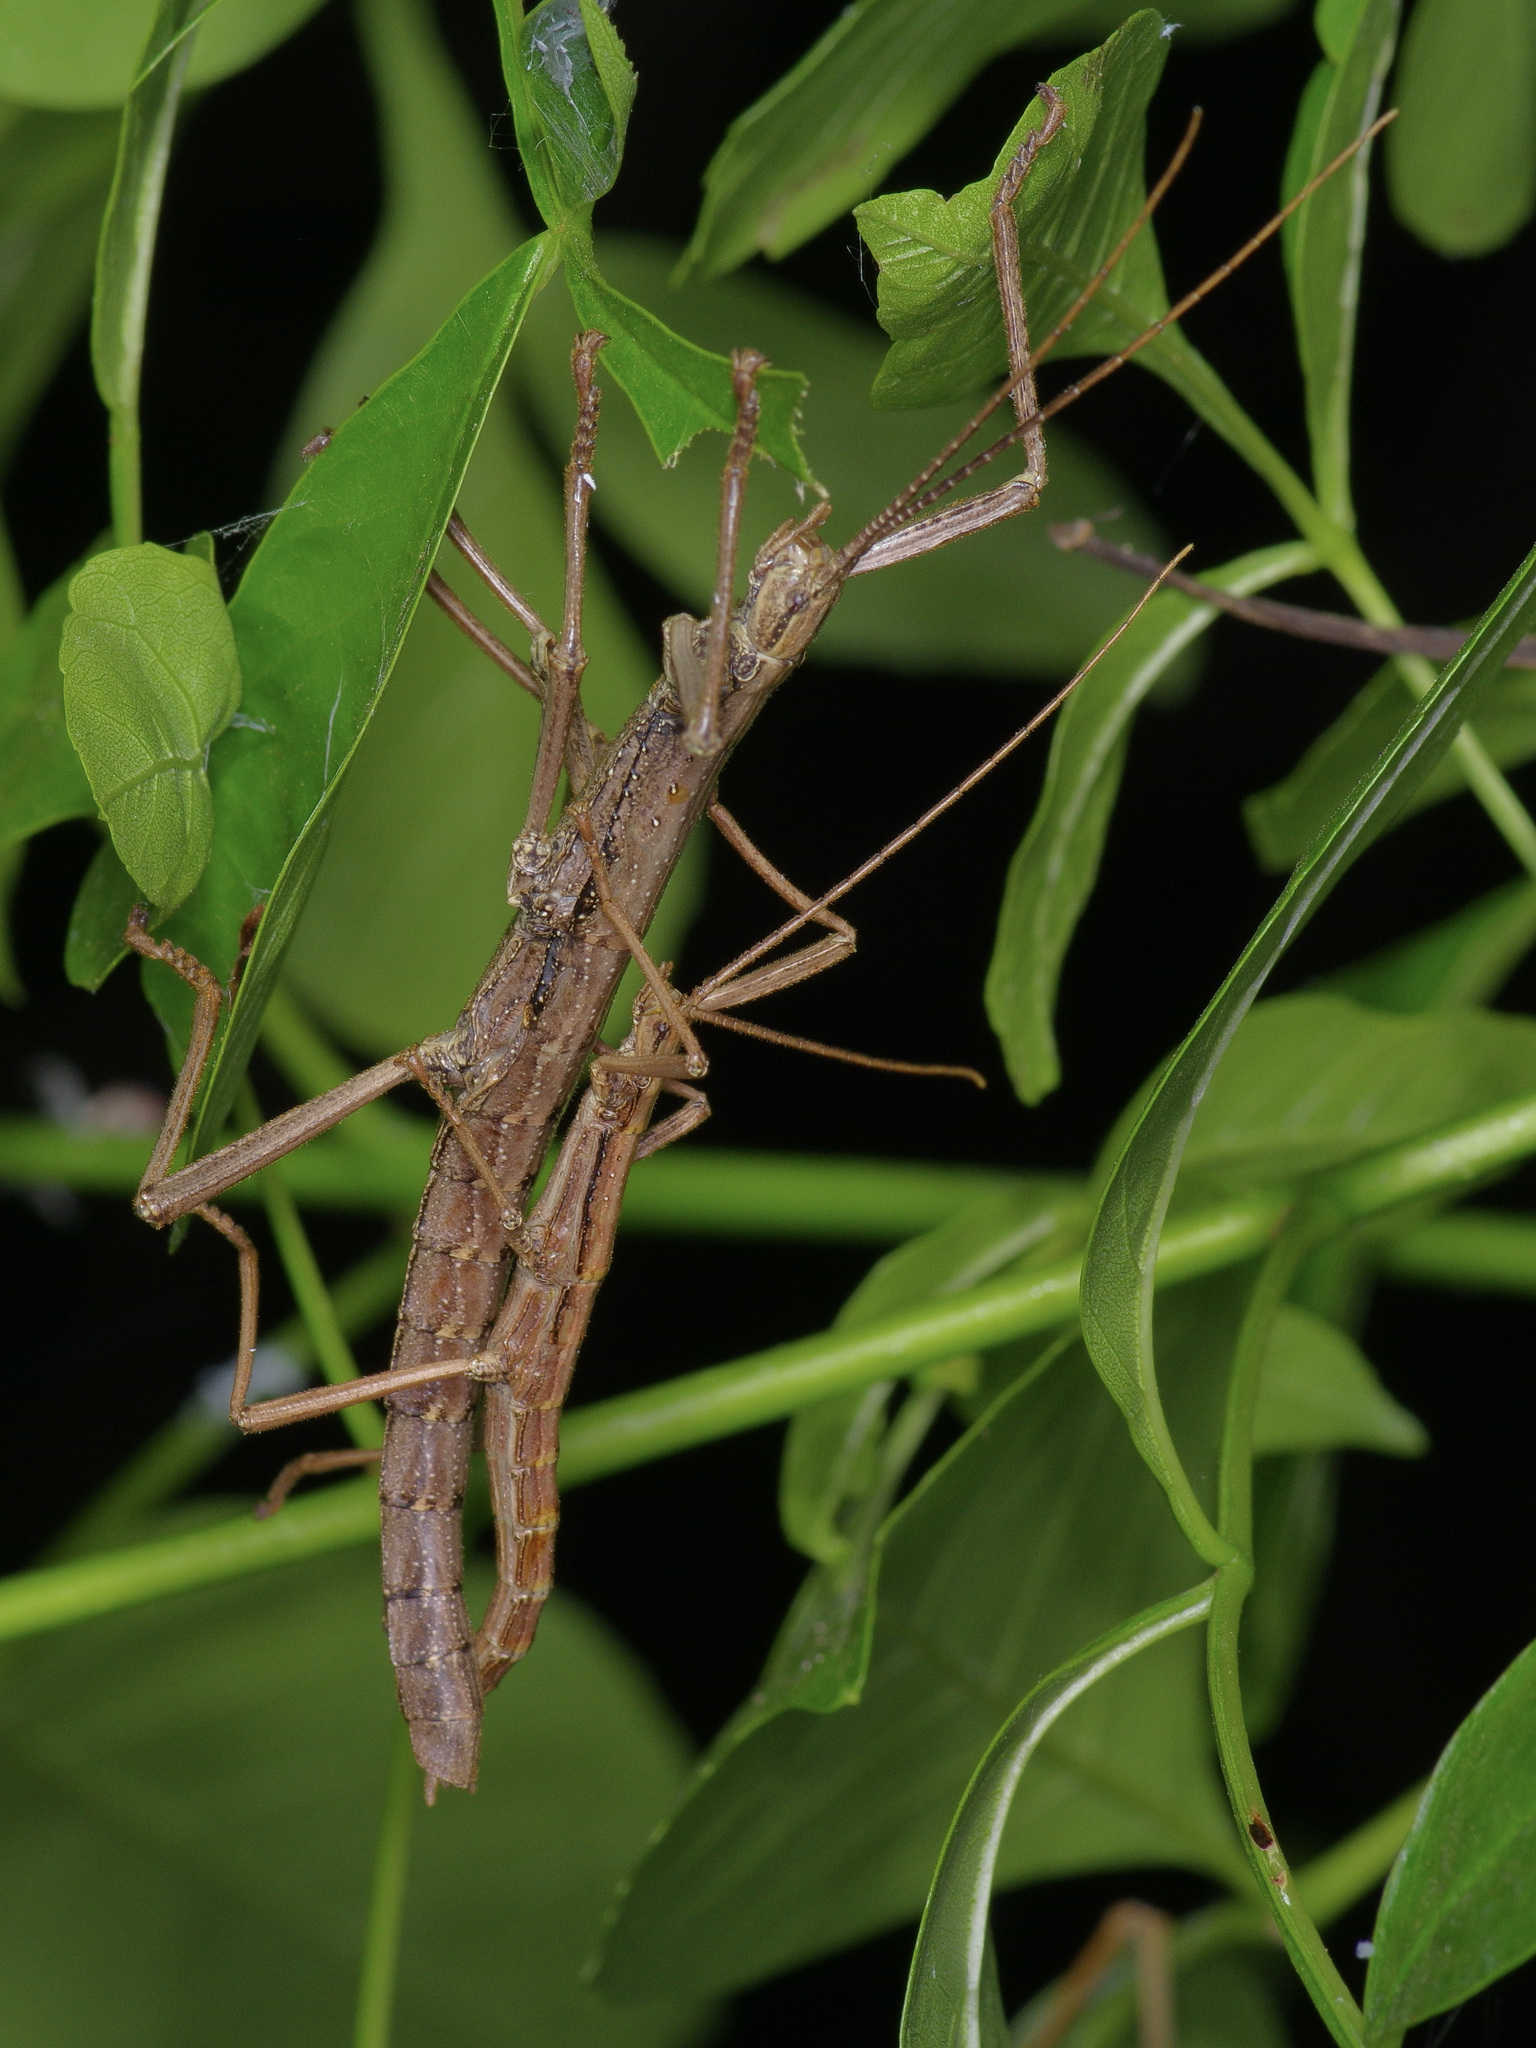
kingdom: Animalia
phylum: Arthropoda
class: Insecta
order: Phasmida
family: Pseudophasmatidae
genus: Anisomorpha
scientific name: Anisomorpha ferruginea
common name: Dark walkingstick
